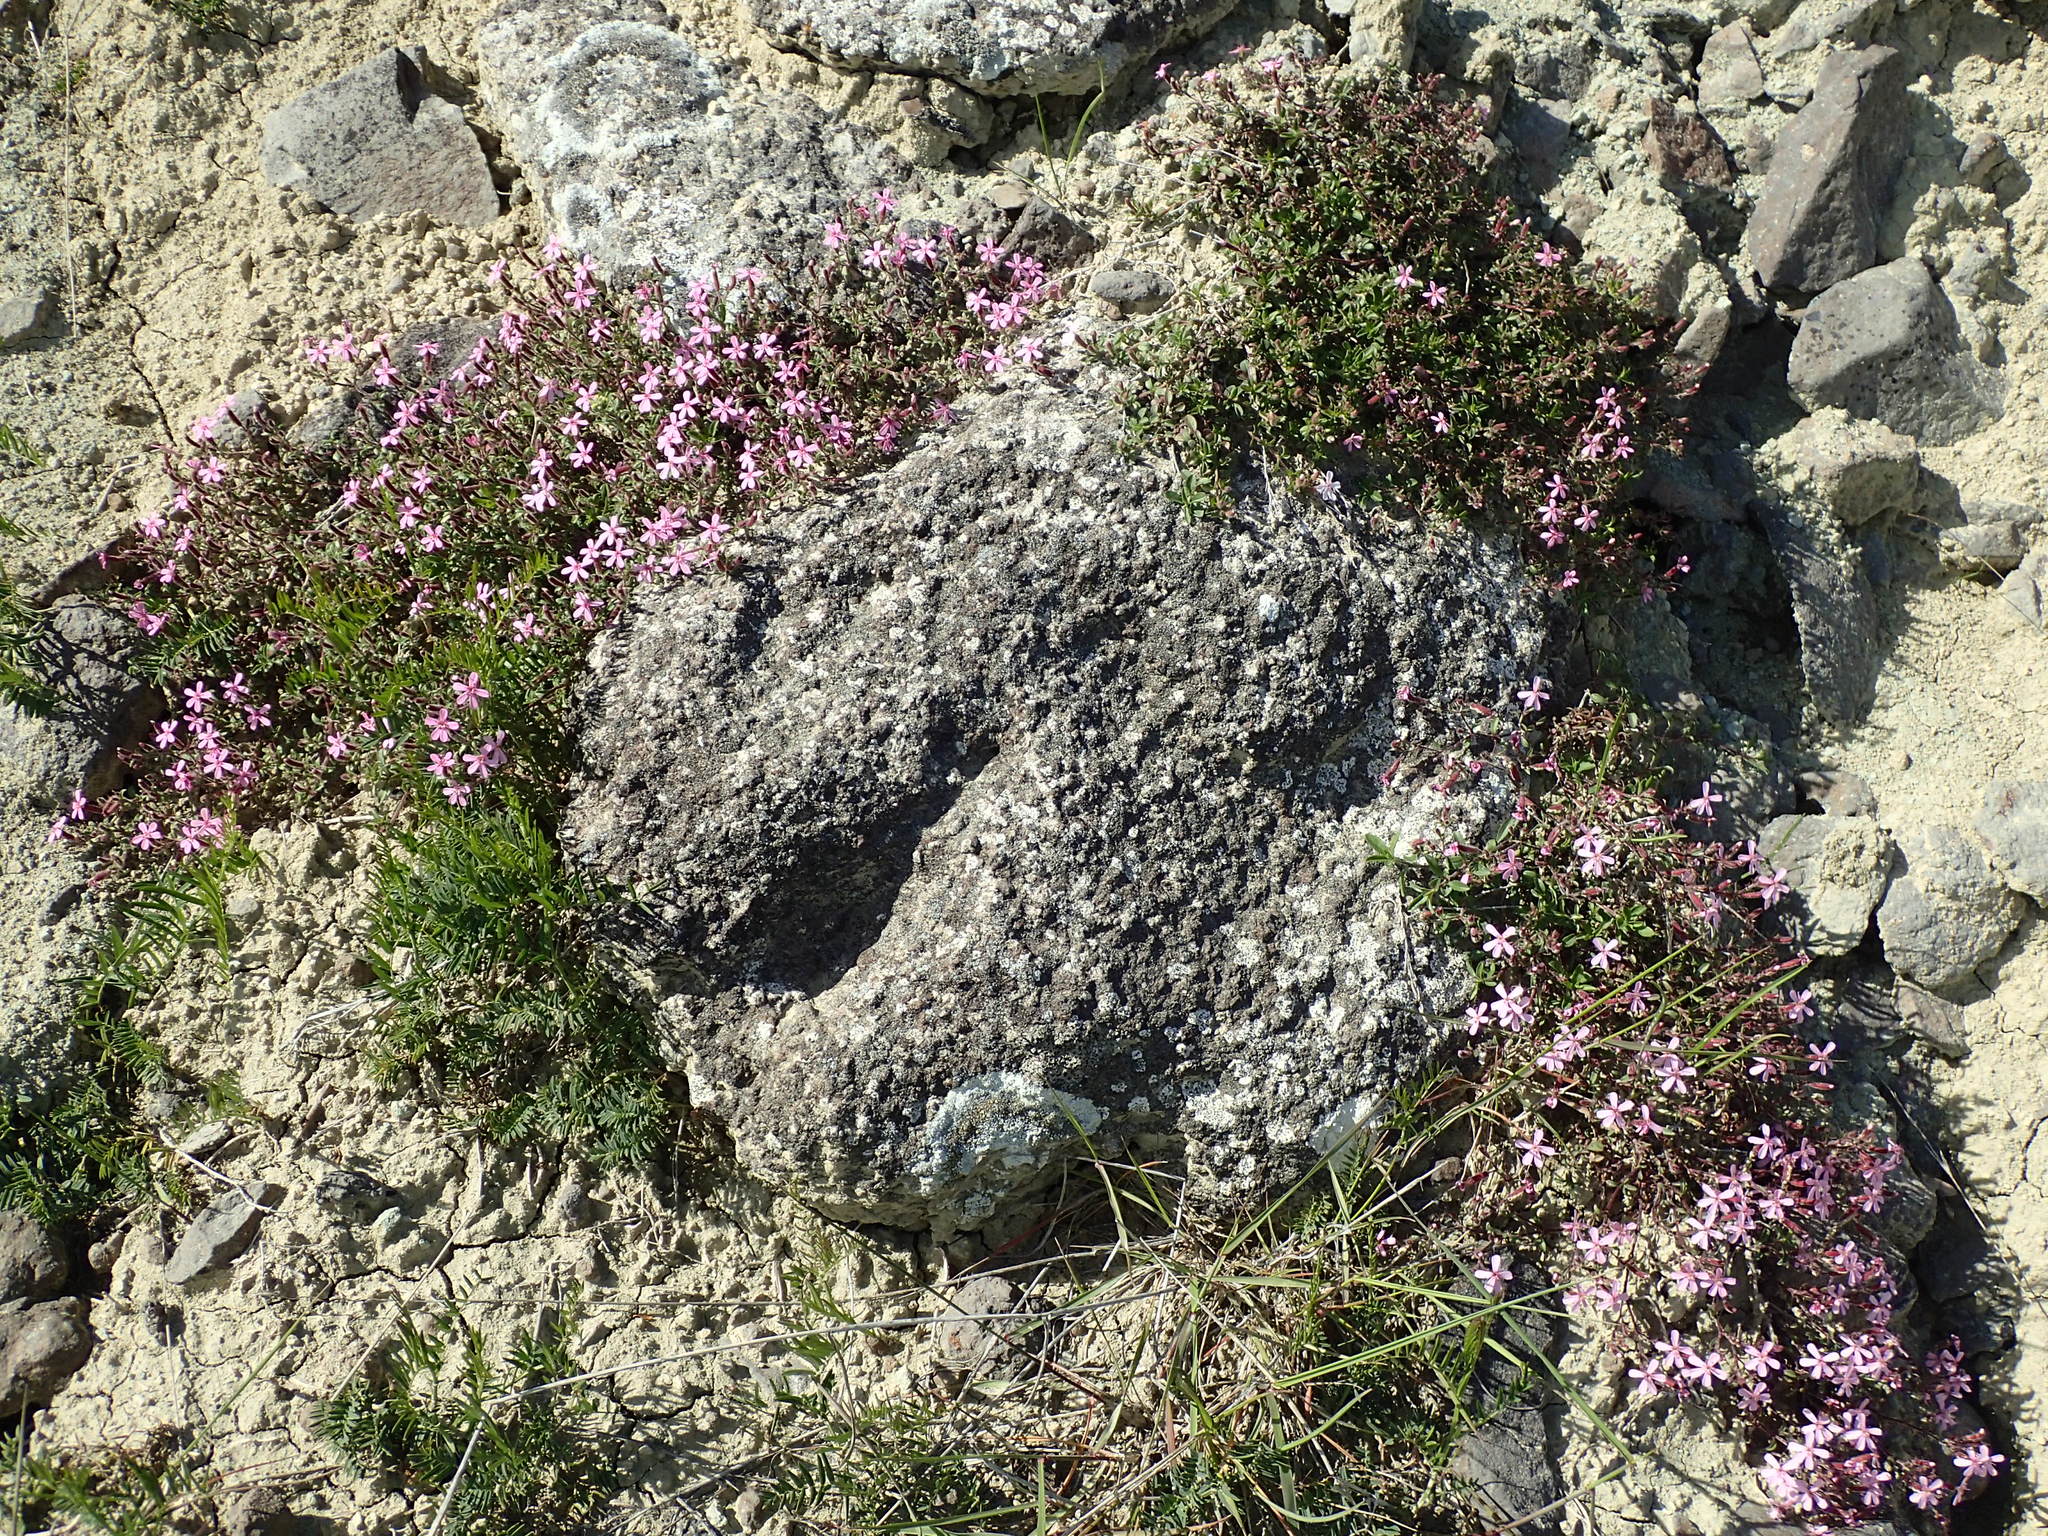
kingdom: Plantae
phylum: Tracheophyta
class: Magnoliopsida
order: Caryophyllales
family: Caryophyllaceae
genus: Saponaria
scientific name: Saponaria ocymoides
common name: Rock soapwort
